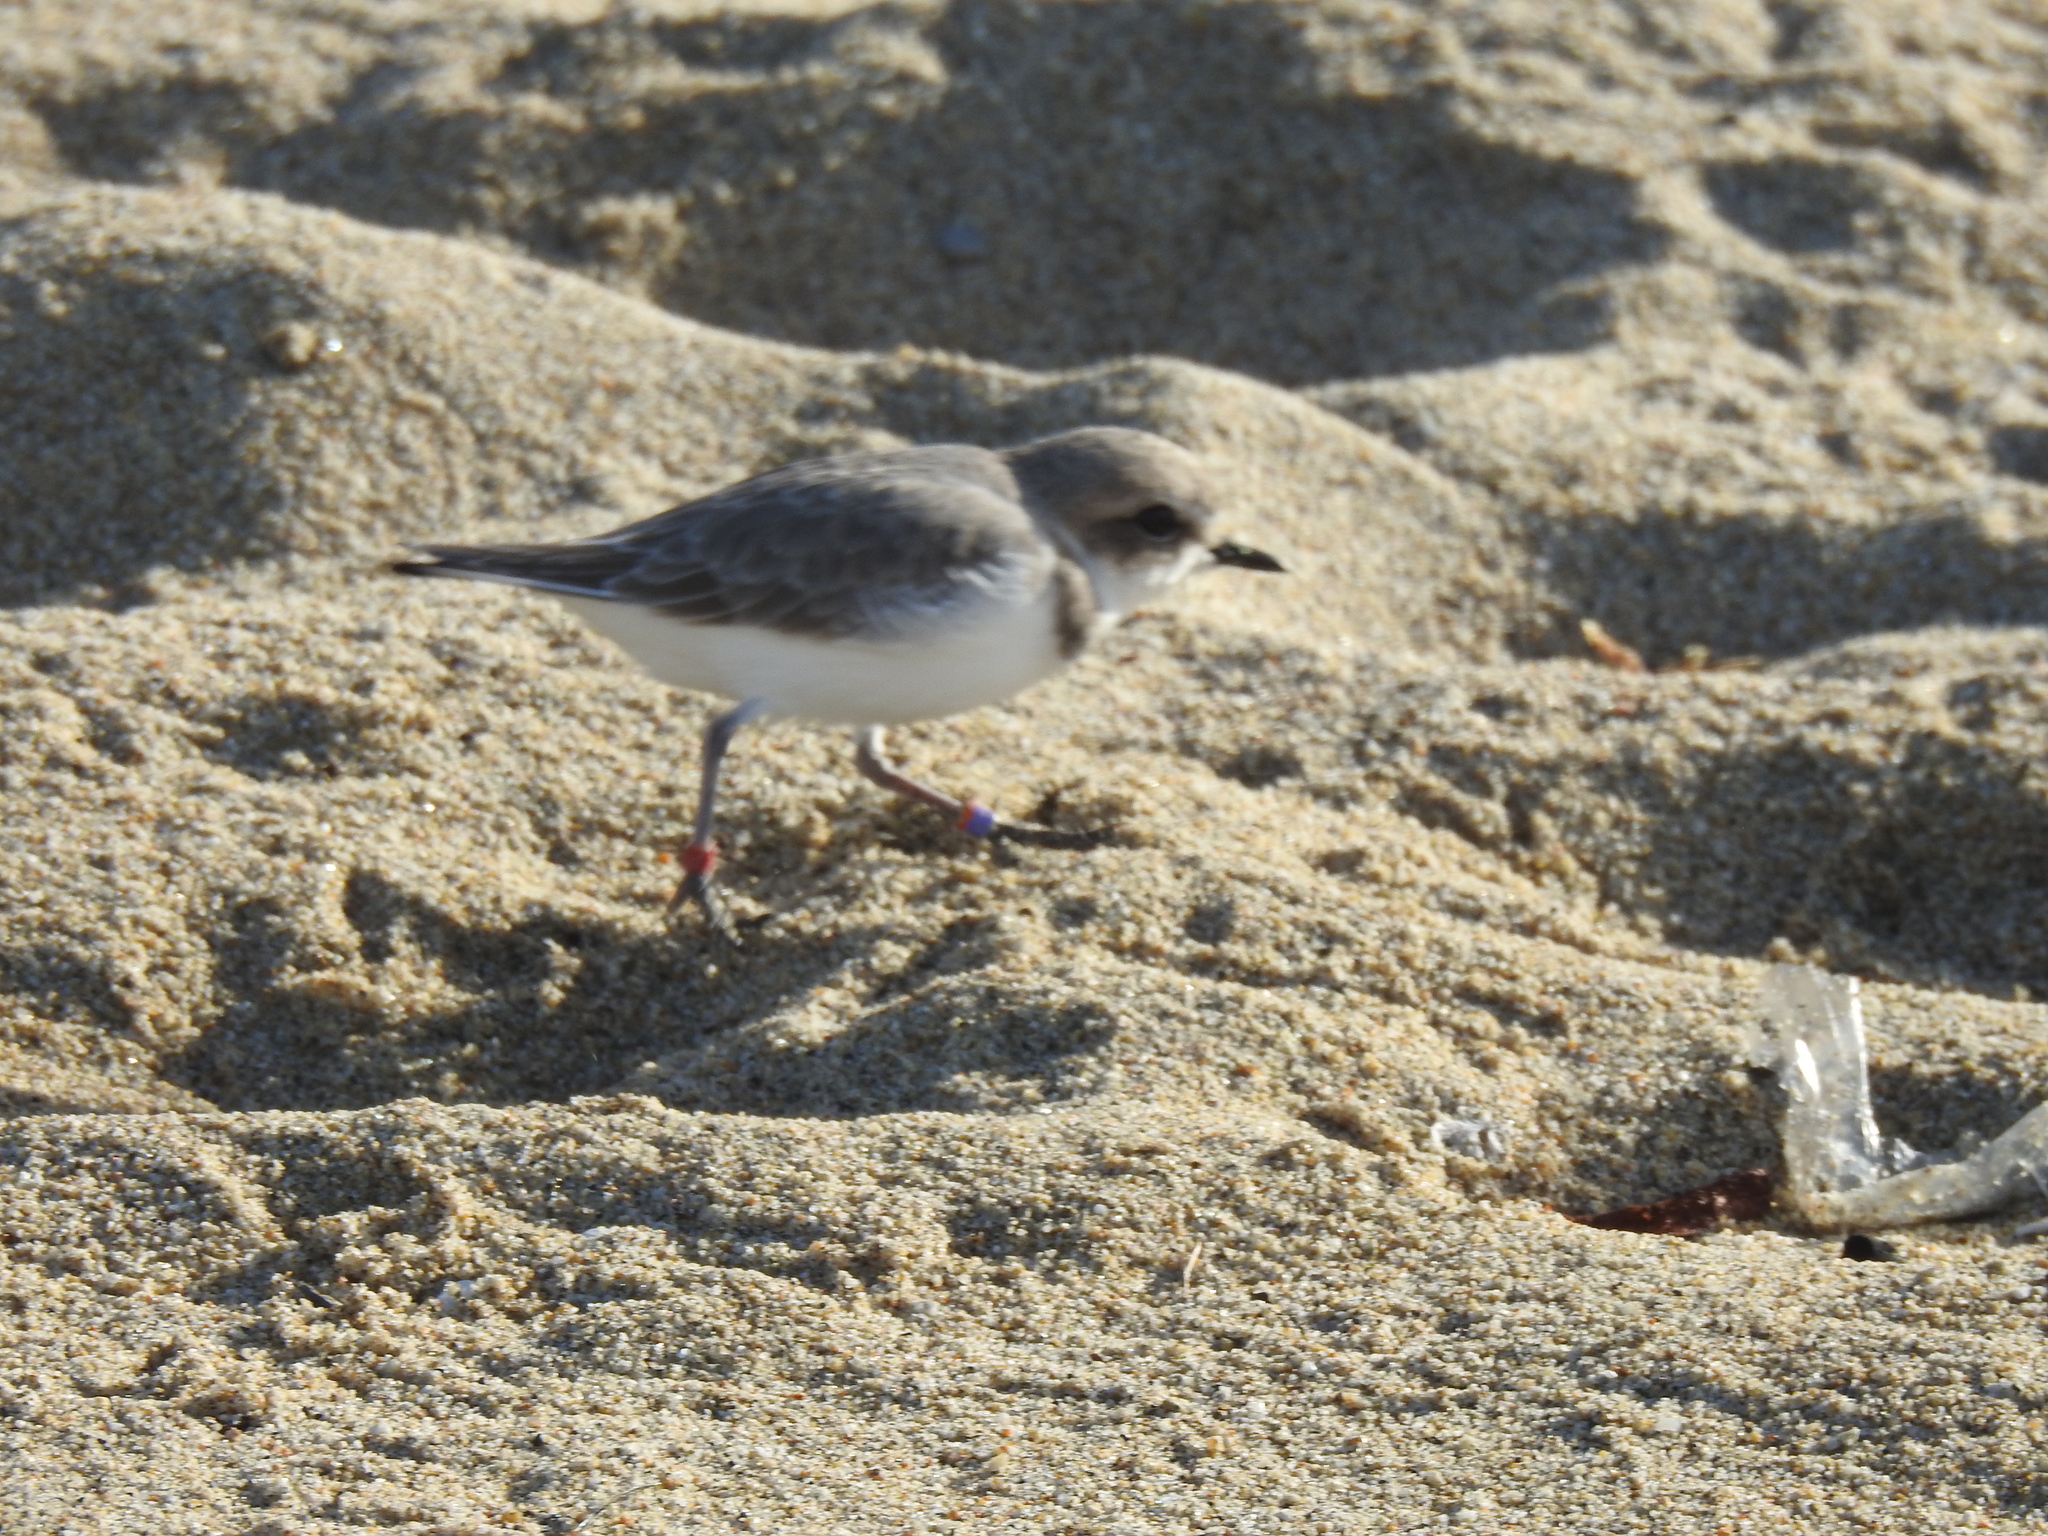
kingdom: Animalia
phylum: Chordata
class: Aves
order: Charadriiformes
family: Charadriidae
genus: Anarhynchus
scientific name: Anarhynchus
